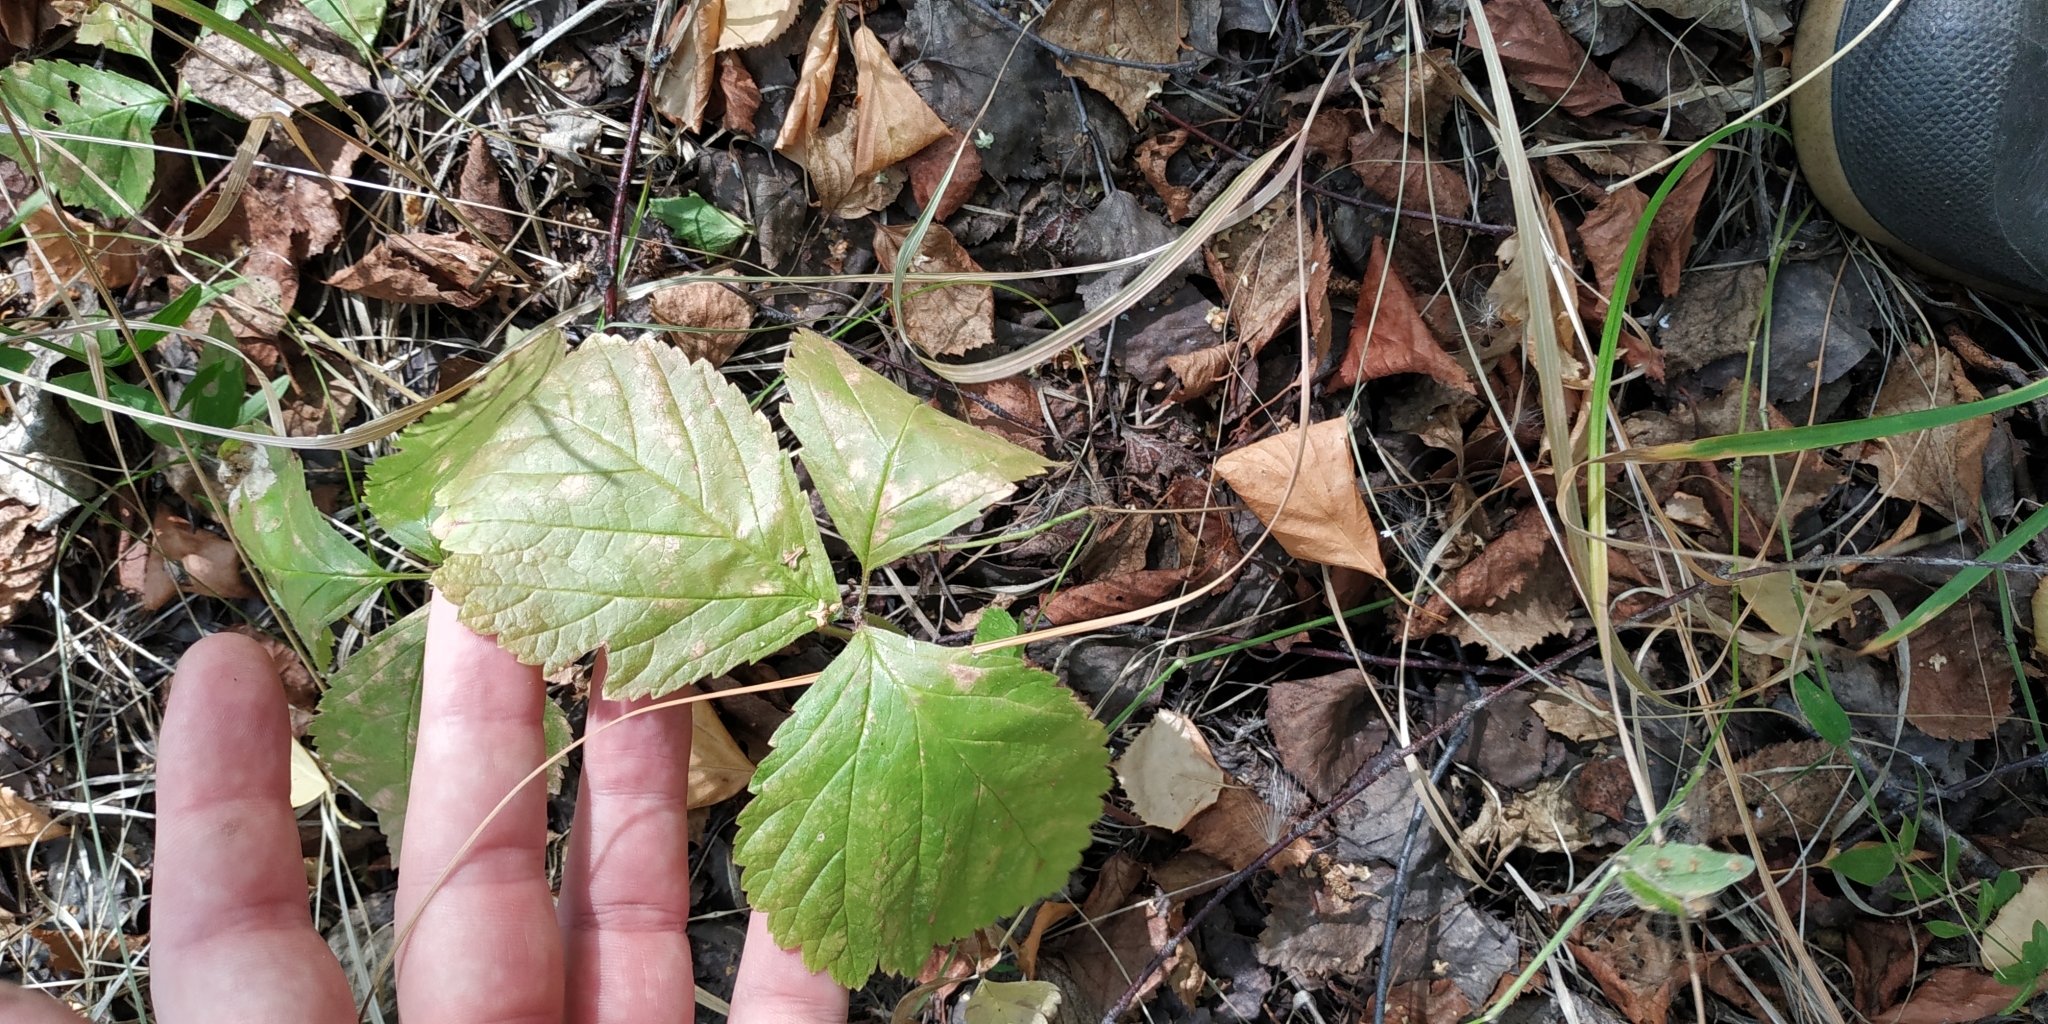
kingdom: Plantae
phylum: Tracheophyta
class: Magnoliopsida
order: Rosales
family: Rosaceae
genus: Rubus
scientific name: Rubus saxatilis
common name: Stone bramble
